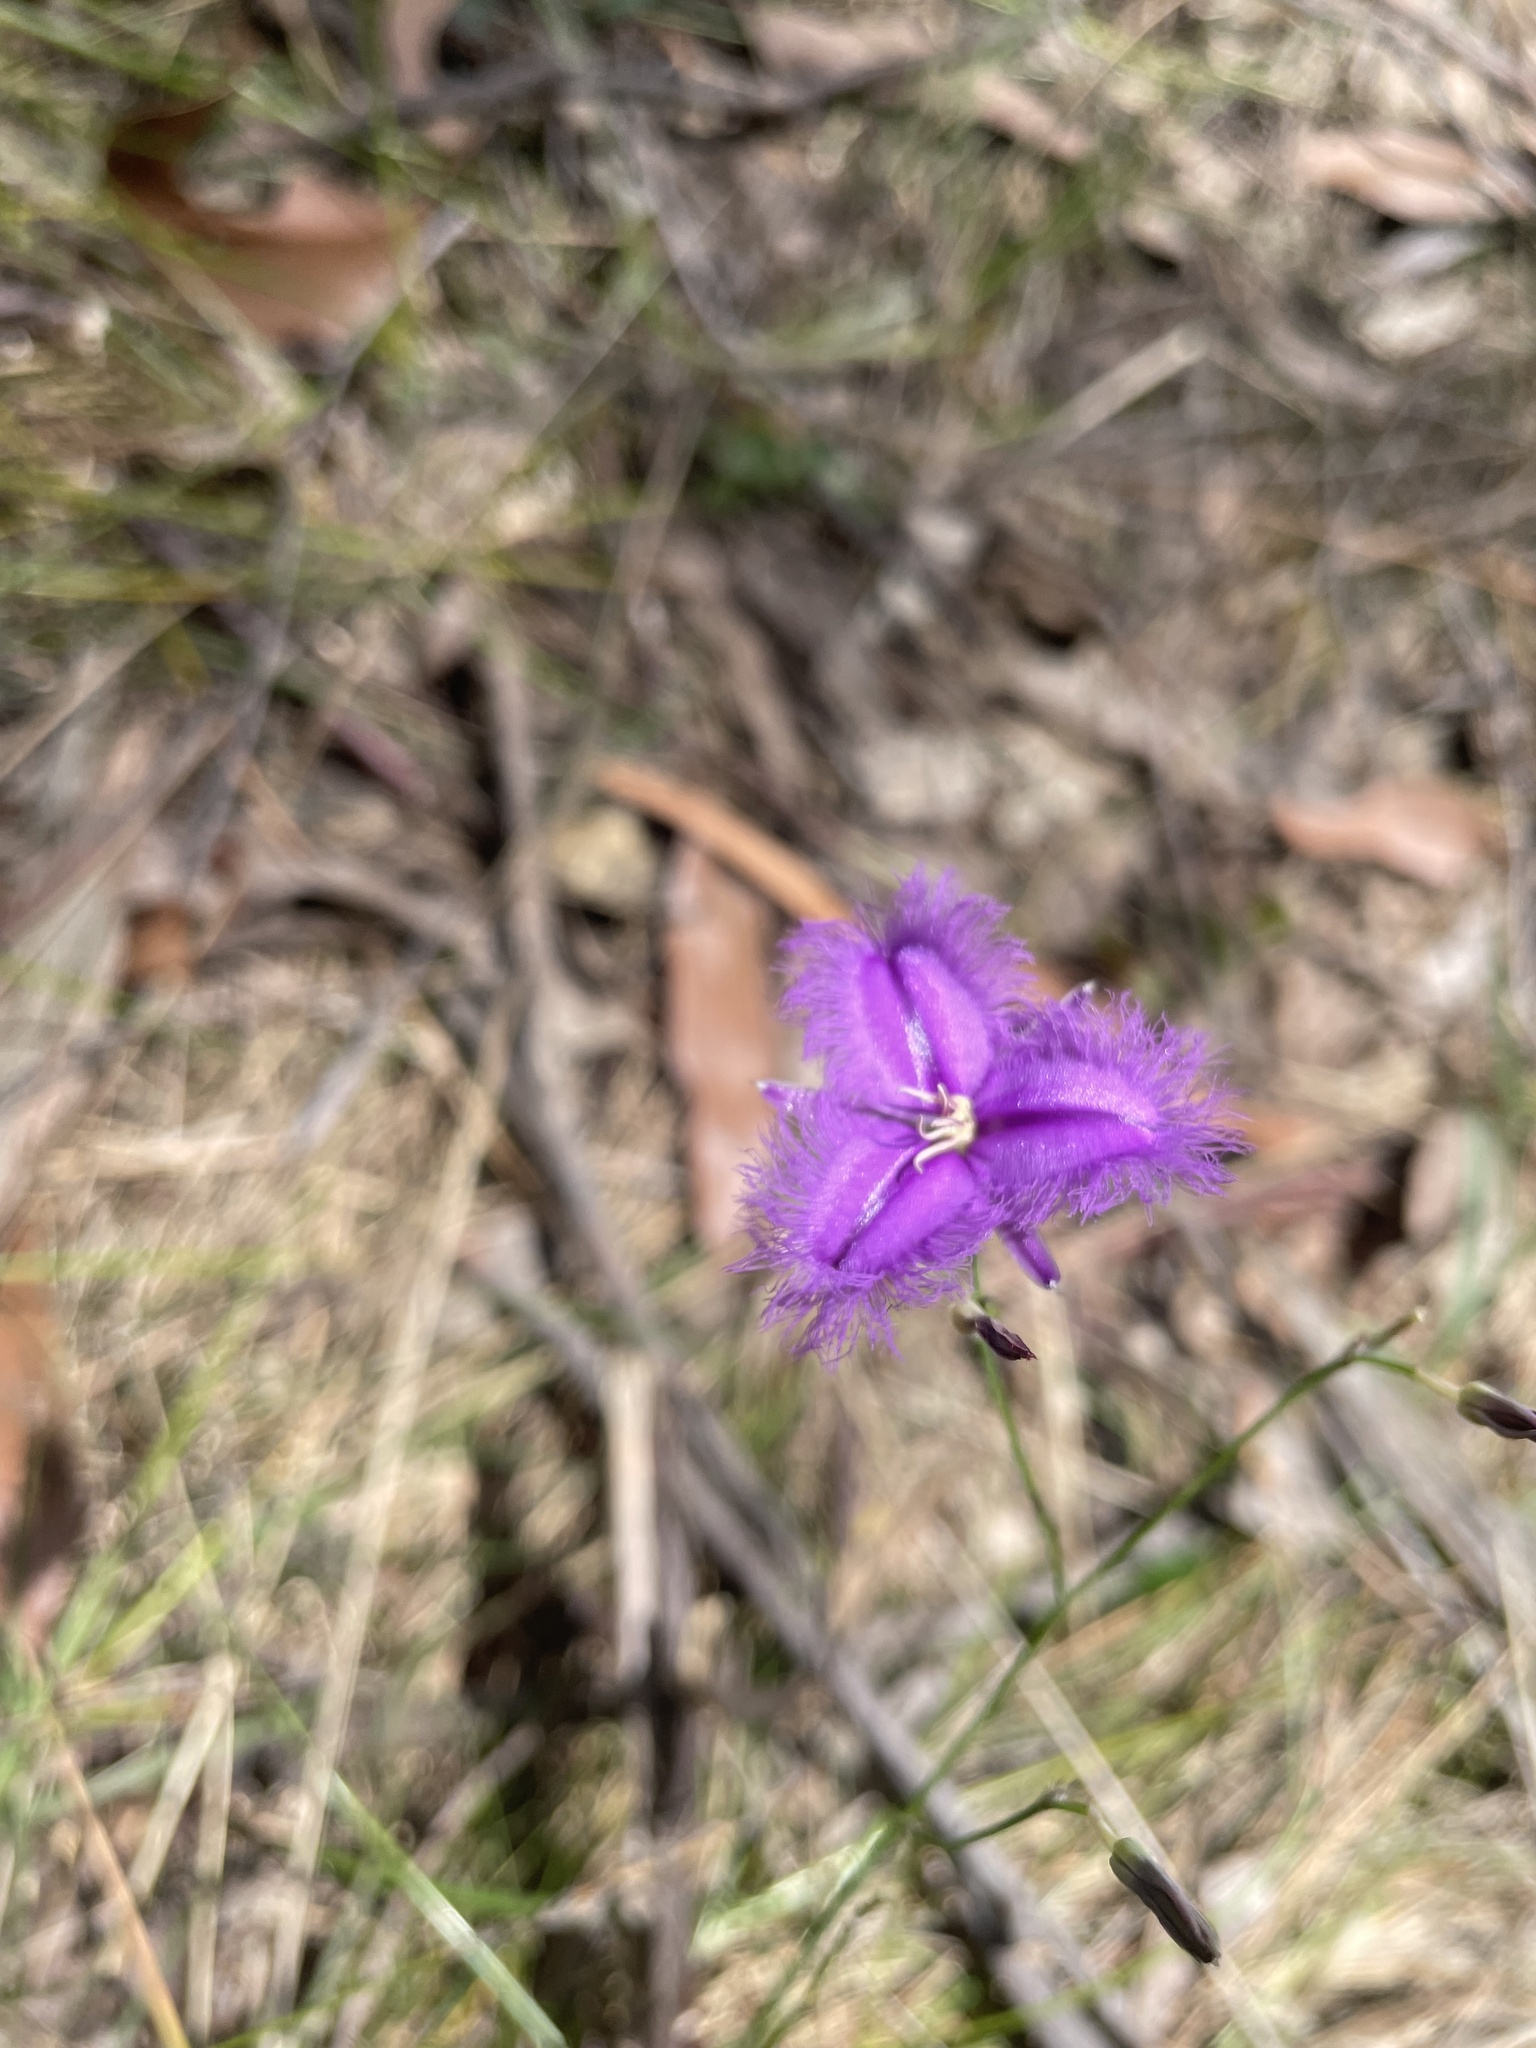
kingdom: Plantae
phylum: Tracheophyta
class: Liliopsida
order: Asparagales
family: Asparagaceae
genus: Thysanotus
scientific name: Thysanotus tuberosus
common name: Common fringed-lily
